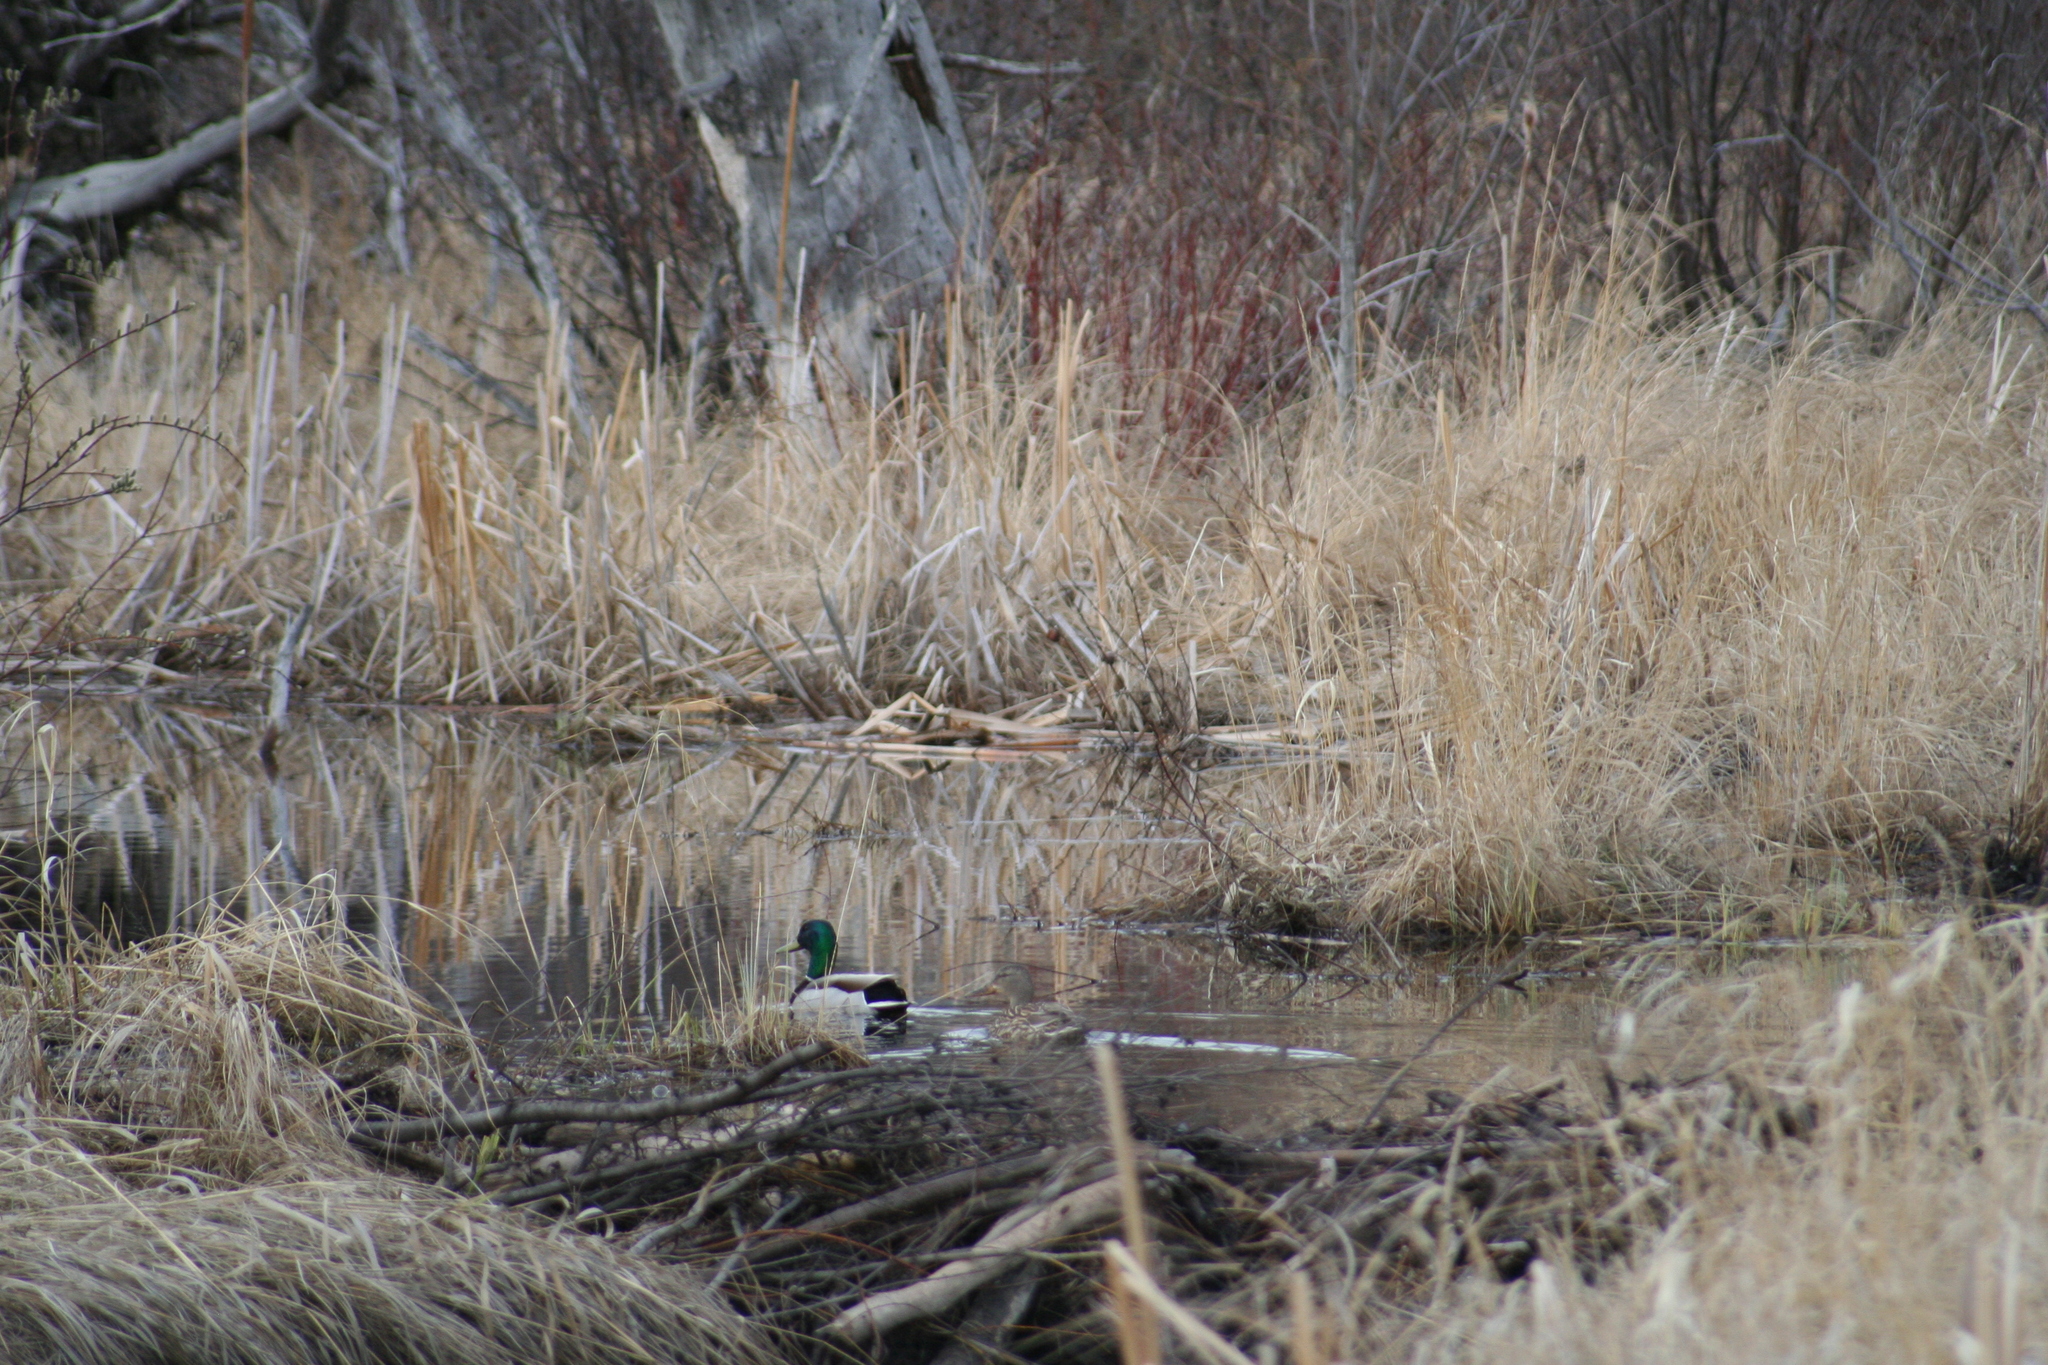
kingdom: Animalia
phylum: Chordata
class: Aves
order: Anseriformes
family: Anatidae
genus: Anas
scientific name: Anas platyrhynchos
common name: Mallard
